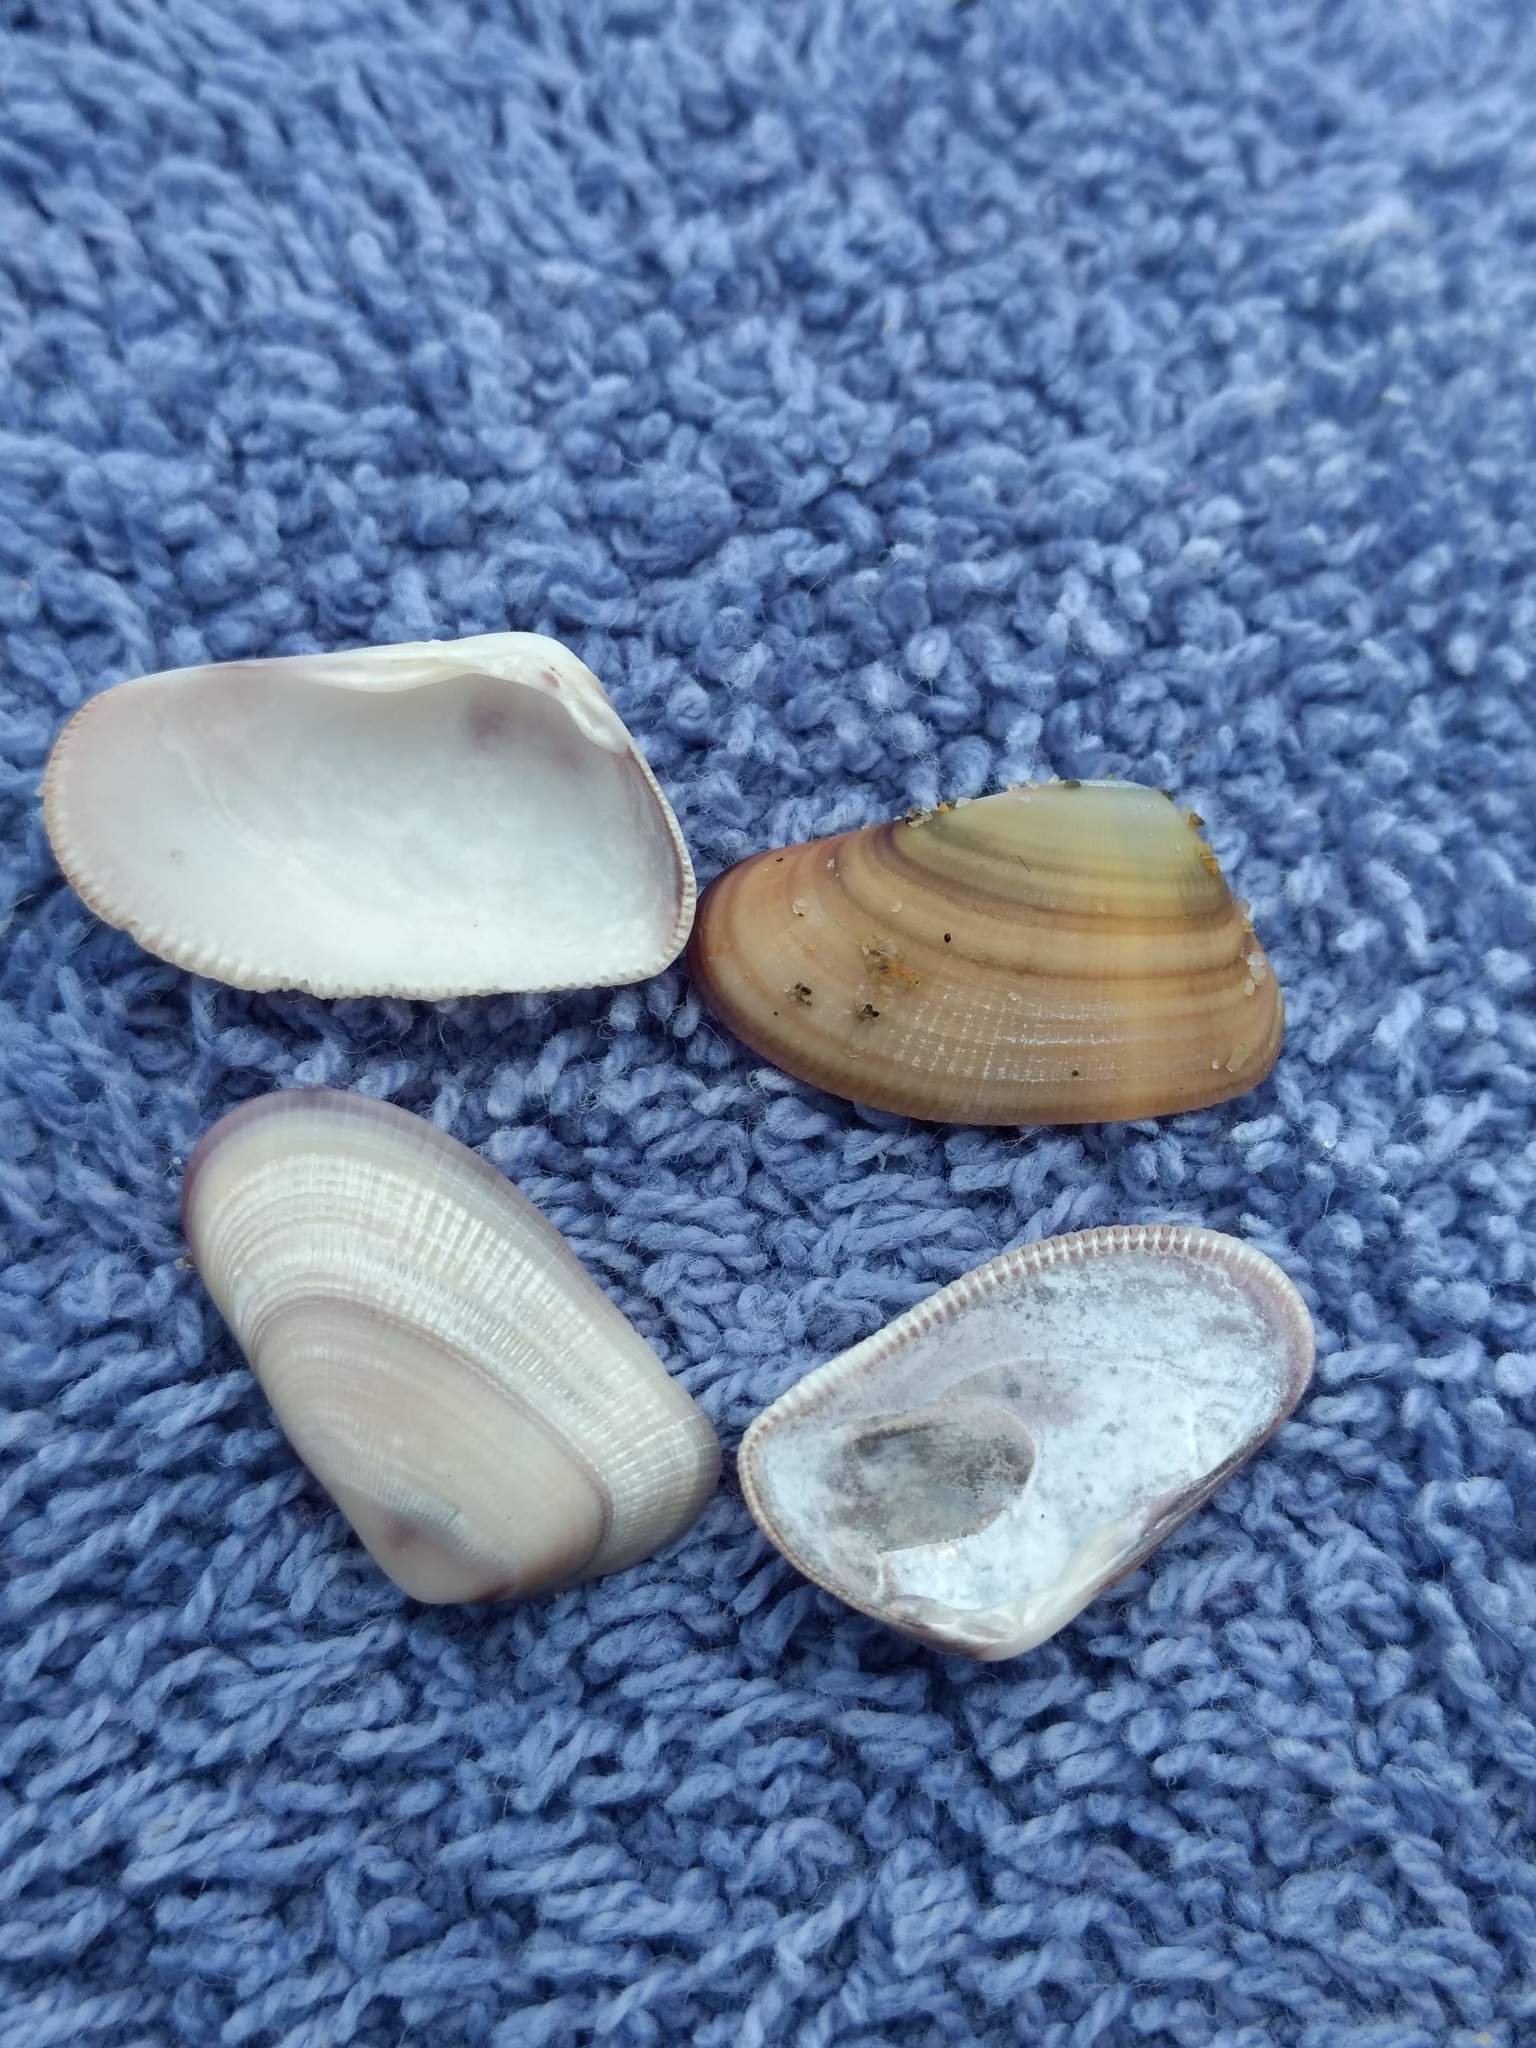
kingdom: Animalia
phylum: Mollusca
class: Bivalvia
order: Cardiida
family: Donacidae
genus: Donax
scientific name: Donax gouldii
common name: Gould beanclam
